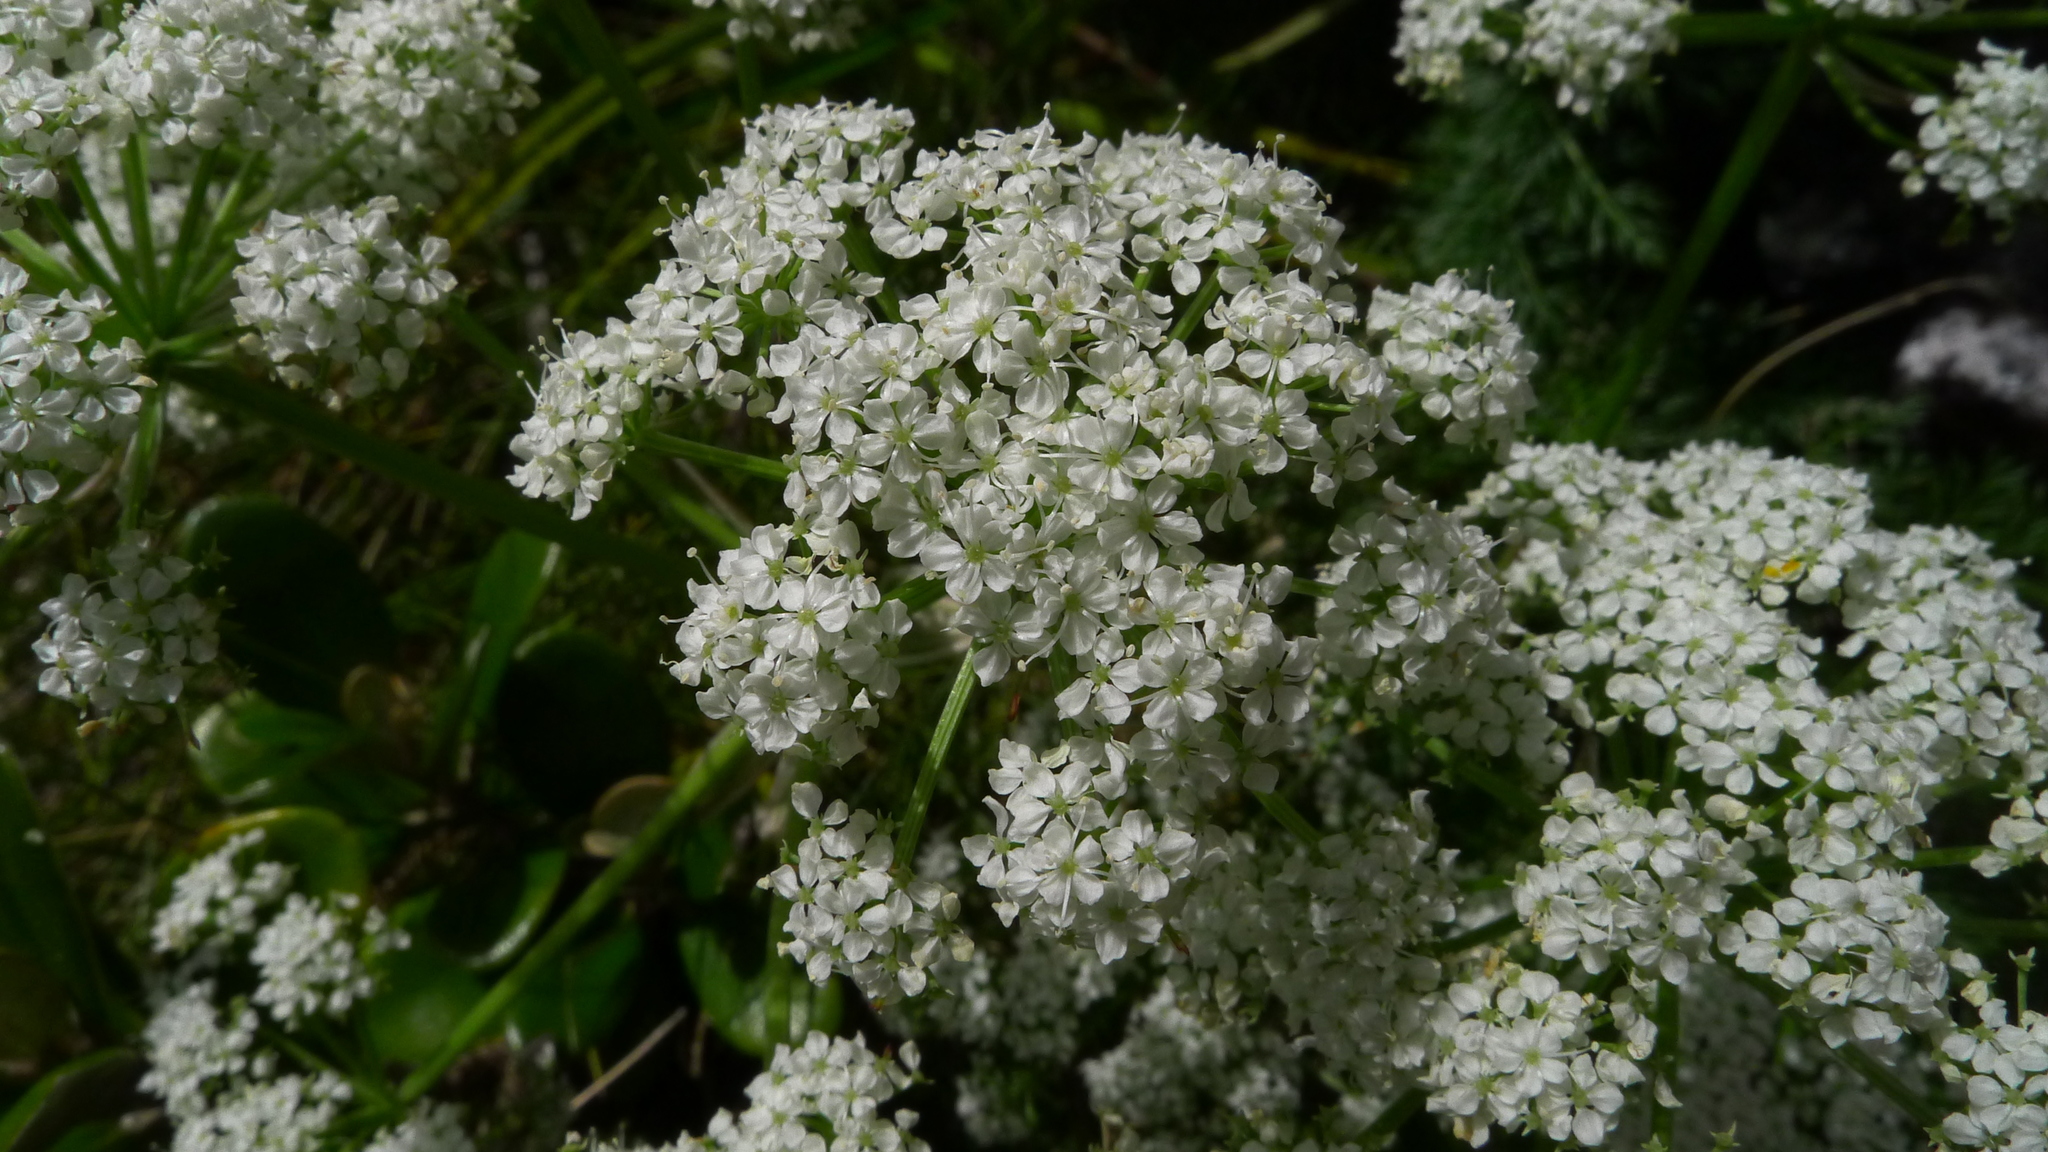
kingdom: Plantae
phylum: Tracheophyta
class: Magnoliopsida
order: Apiales
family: Apiaceae
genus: Anisotome
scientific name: Anisotome haastii
